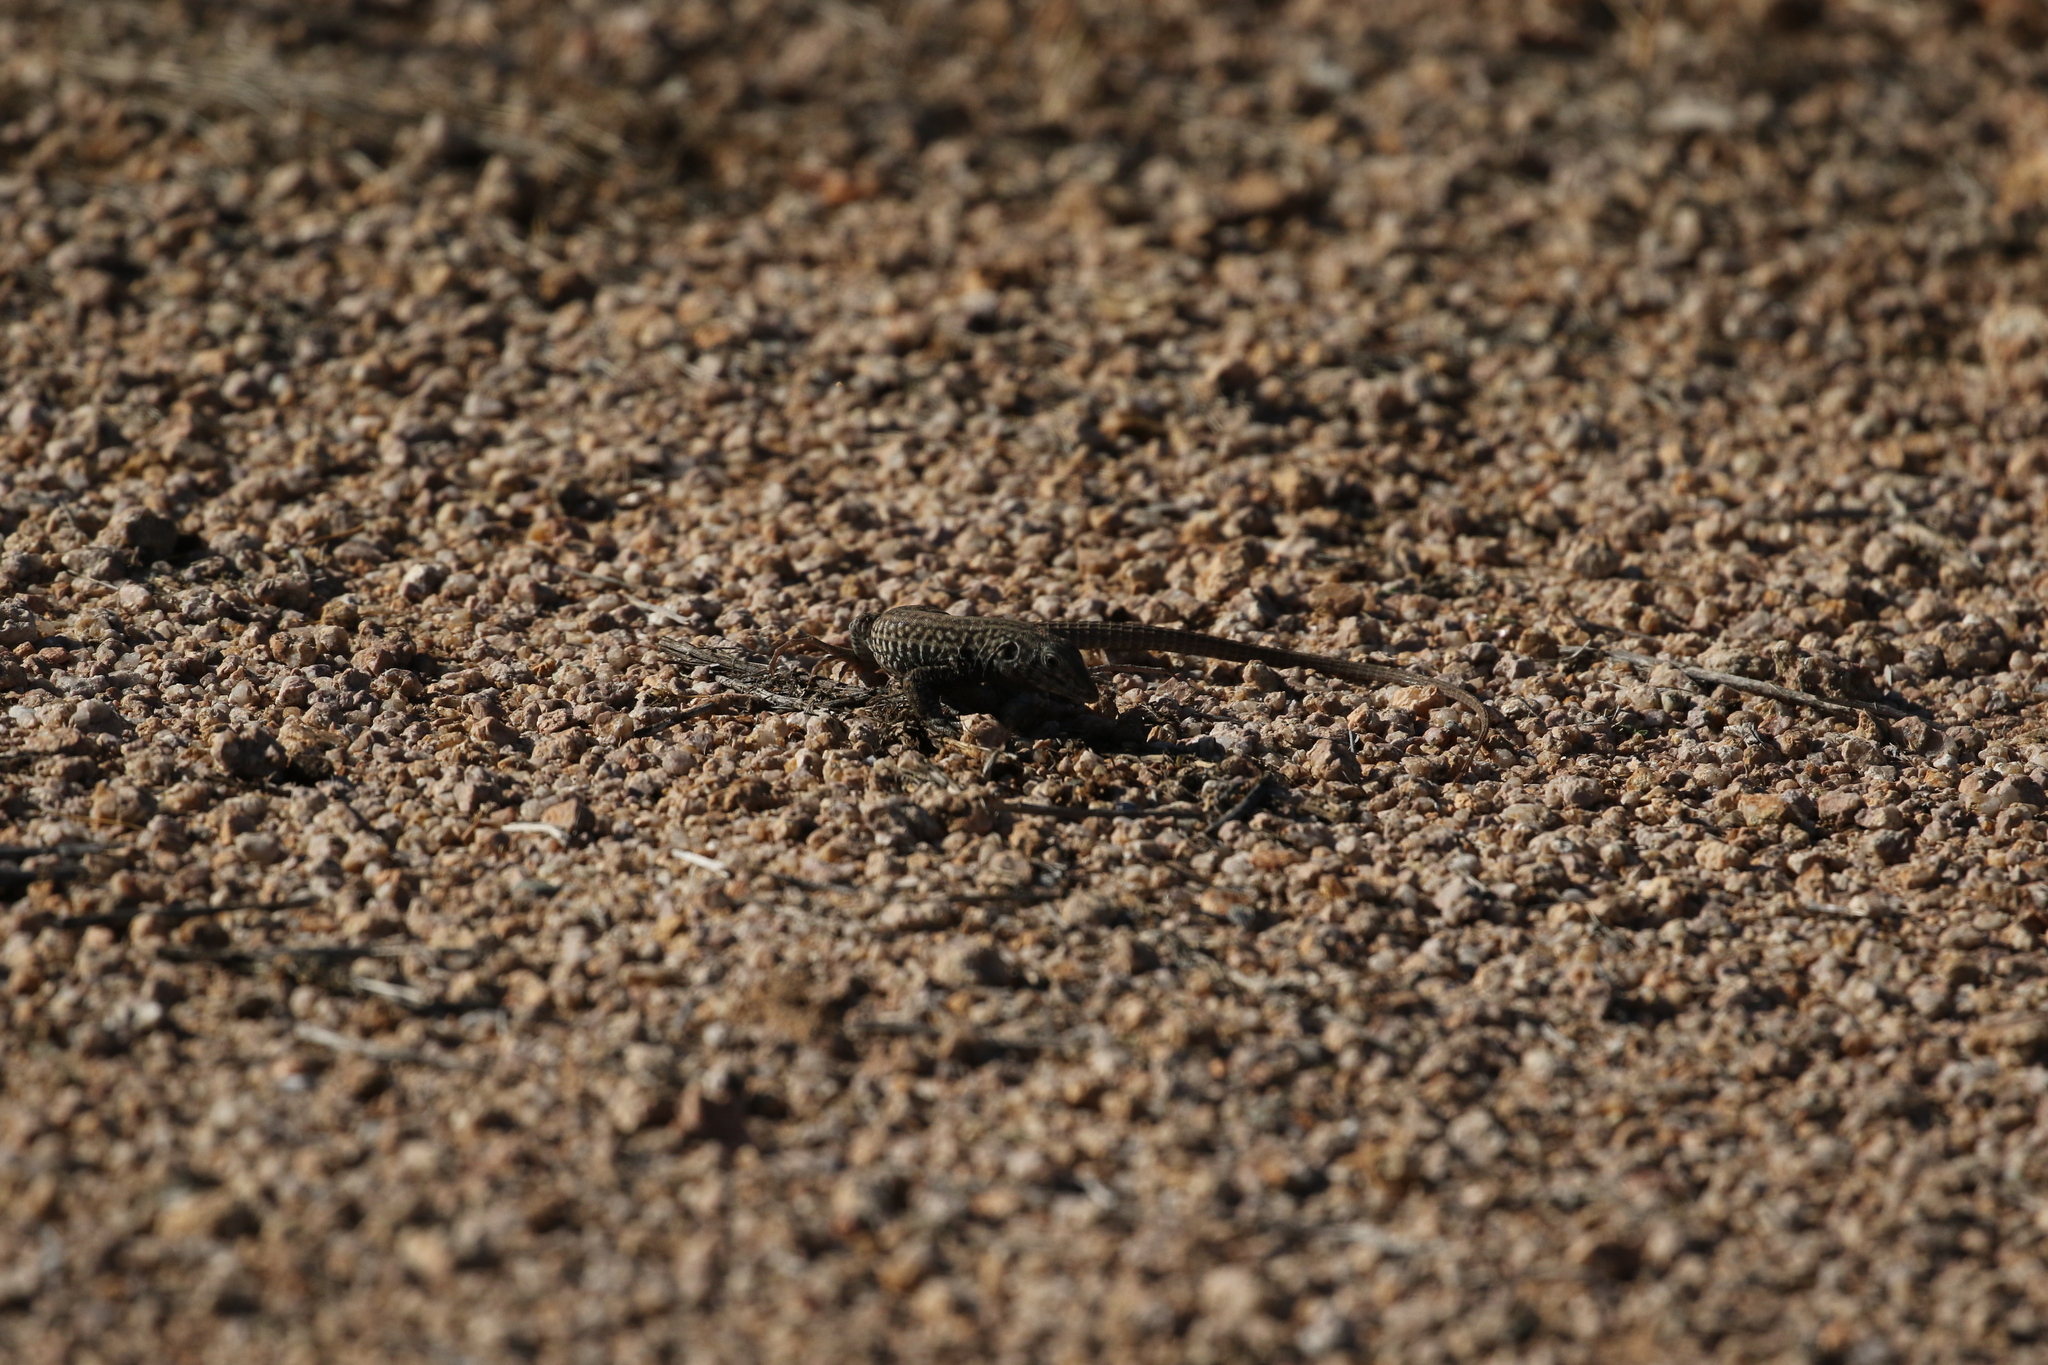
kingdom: Animalia
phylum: Chordata
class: Squamata
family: Teiidae
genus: Aspidoscelis
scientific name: Aspidoscelis tigris
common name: Tiger whiptail
